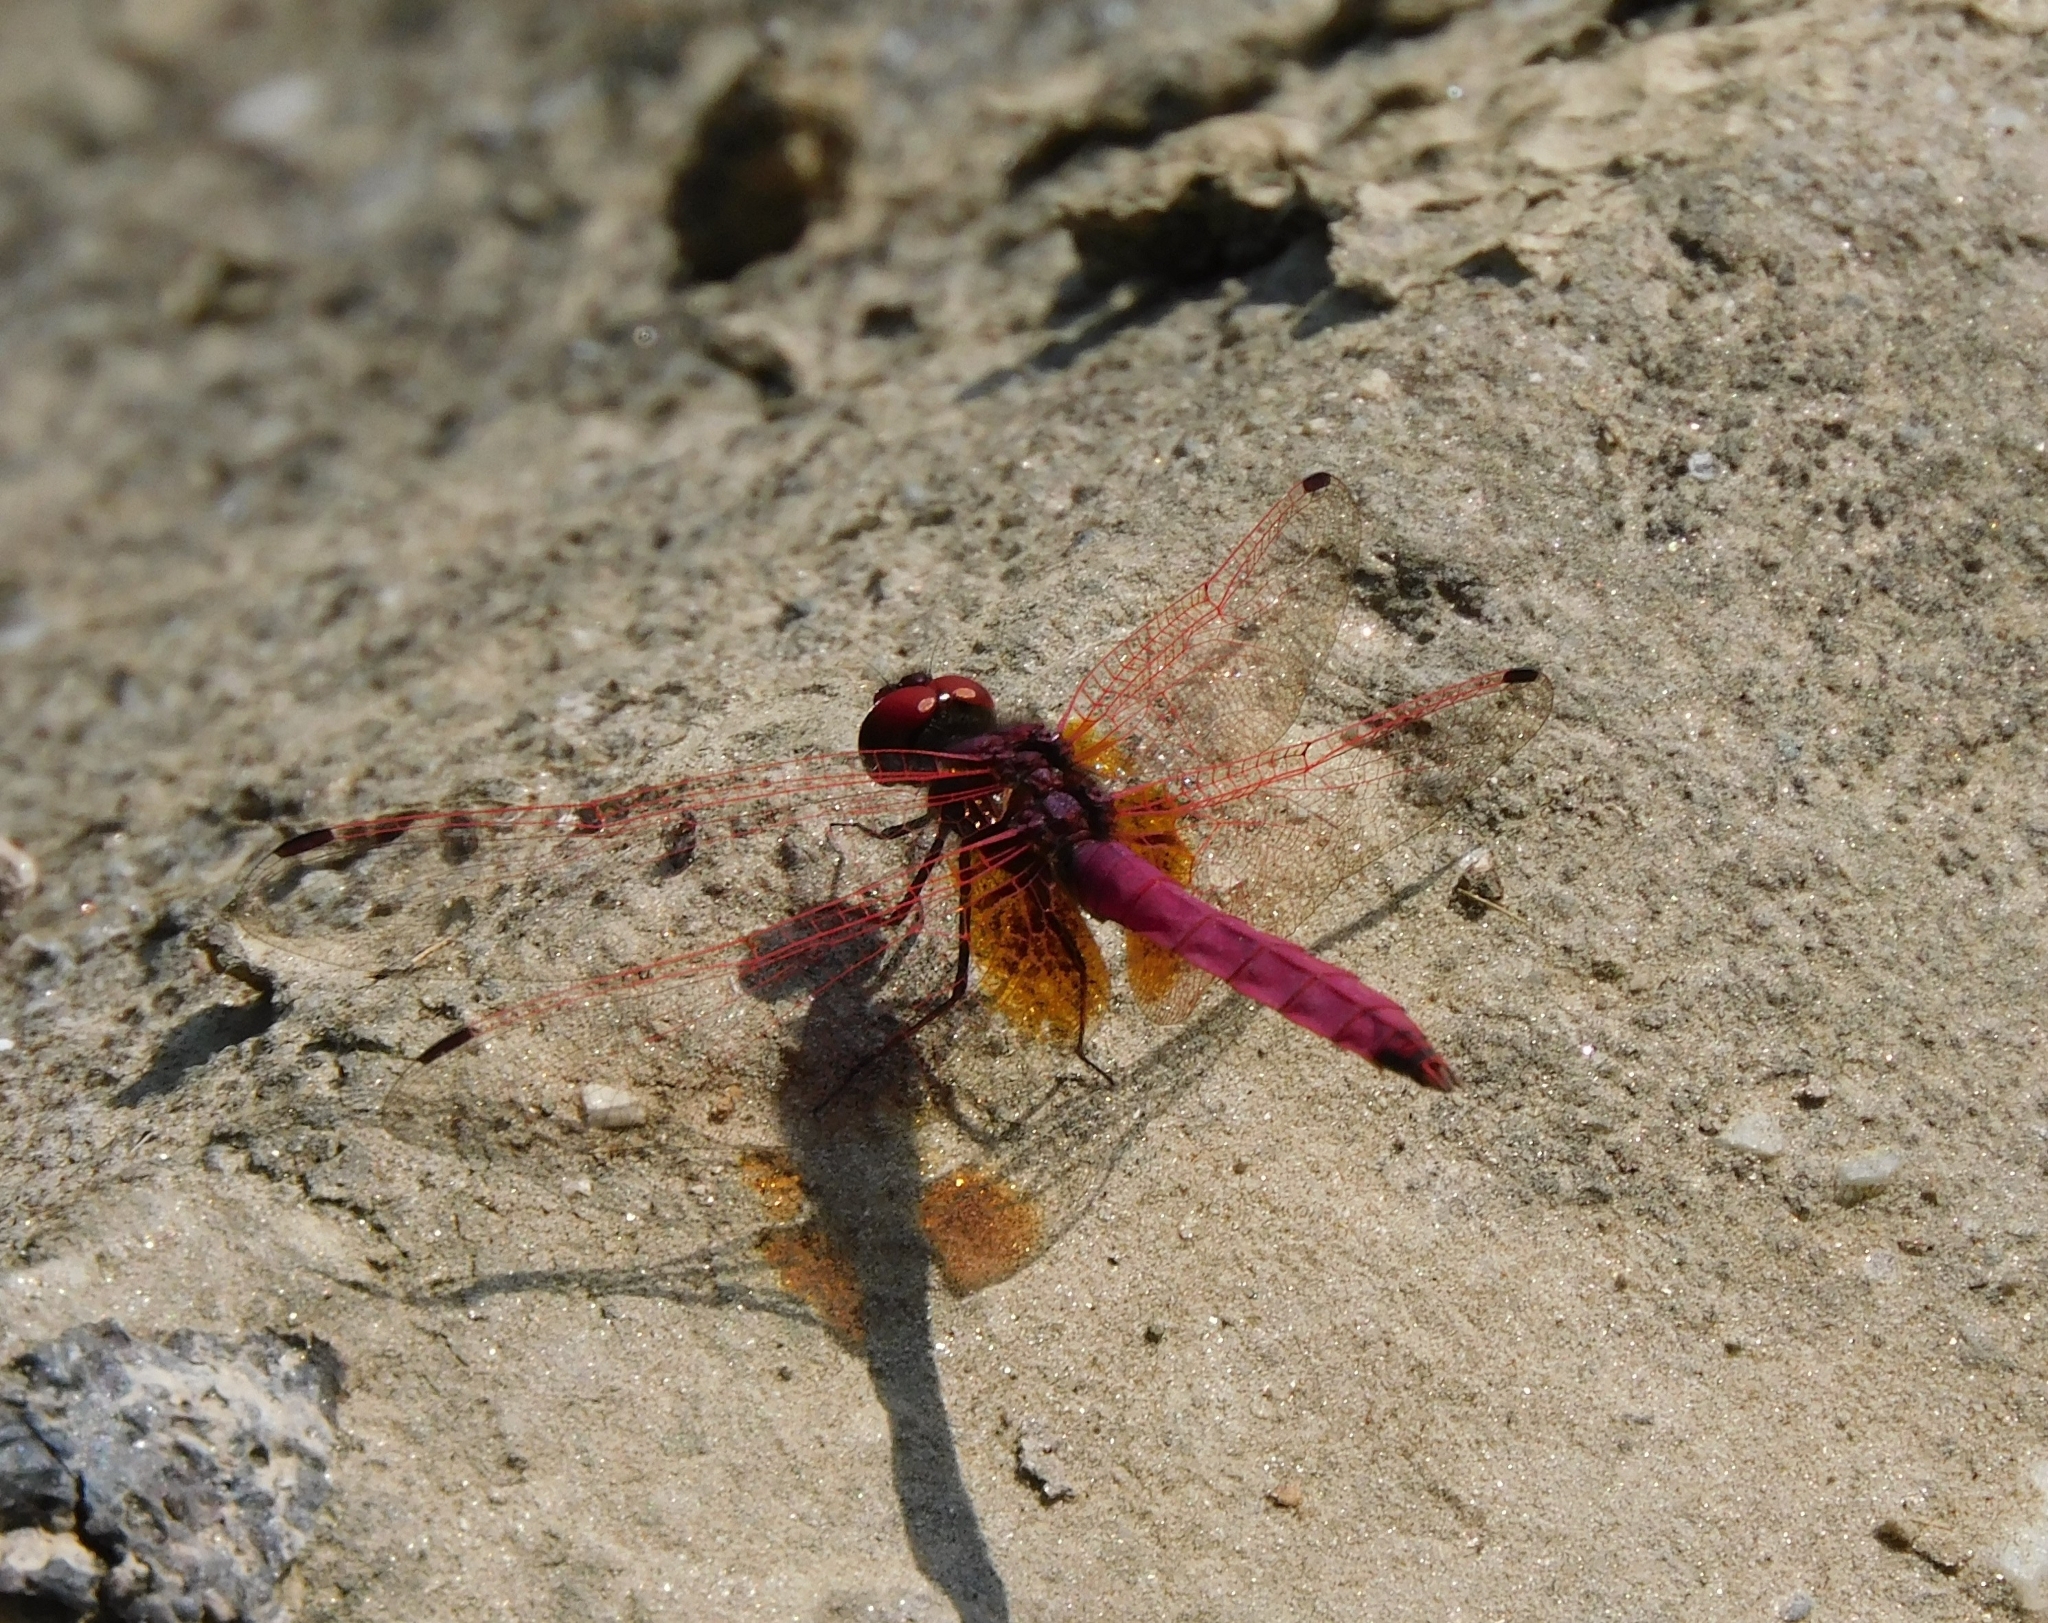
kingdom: Animalia
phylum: Arthropoda
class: Insecta
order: Odonata
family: Libellulidae
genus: Trithemis
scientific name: Trithemis aurora
